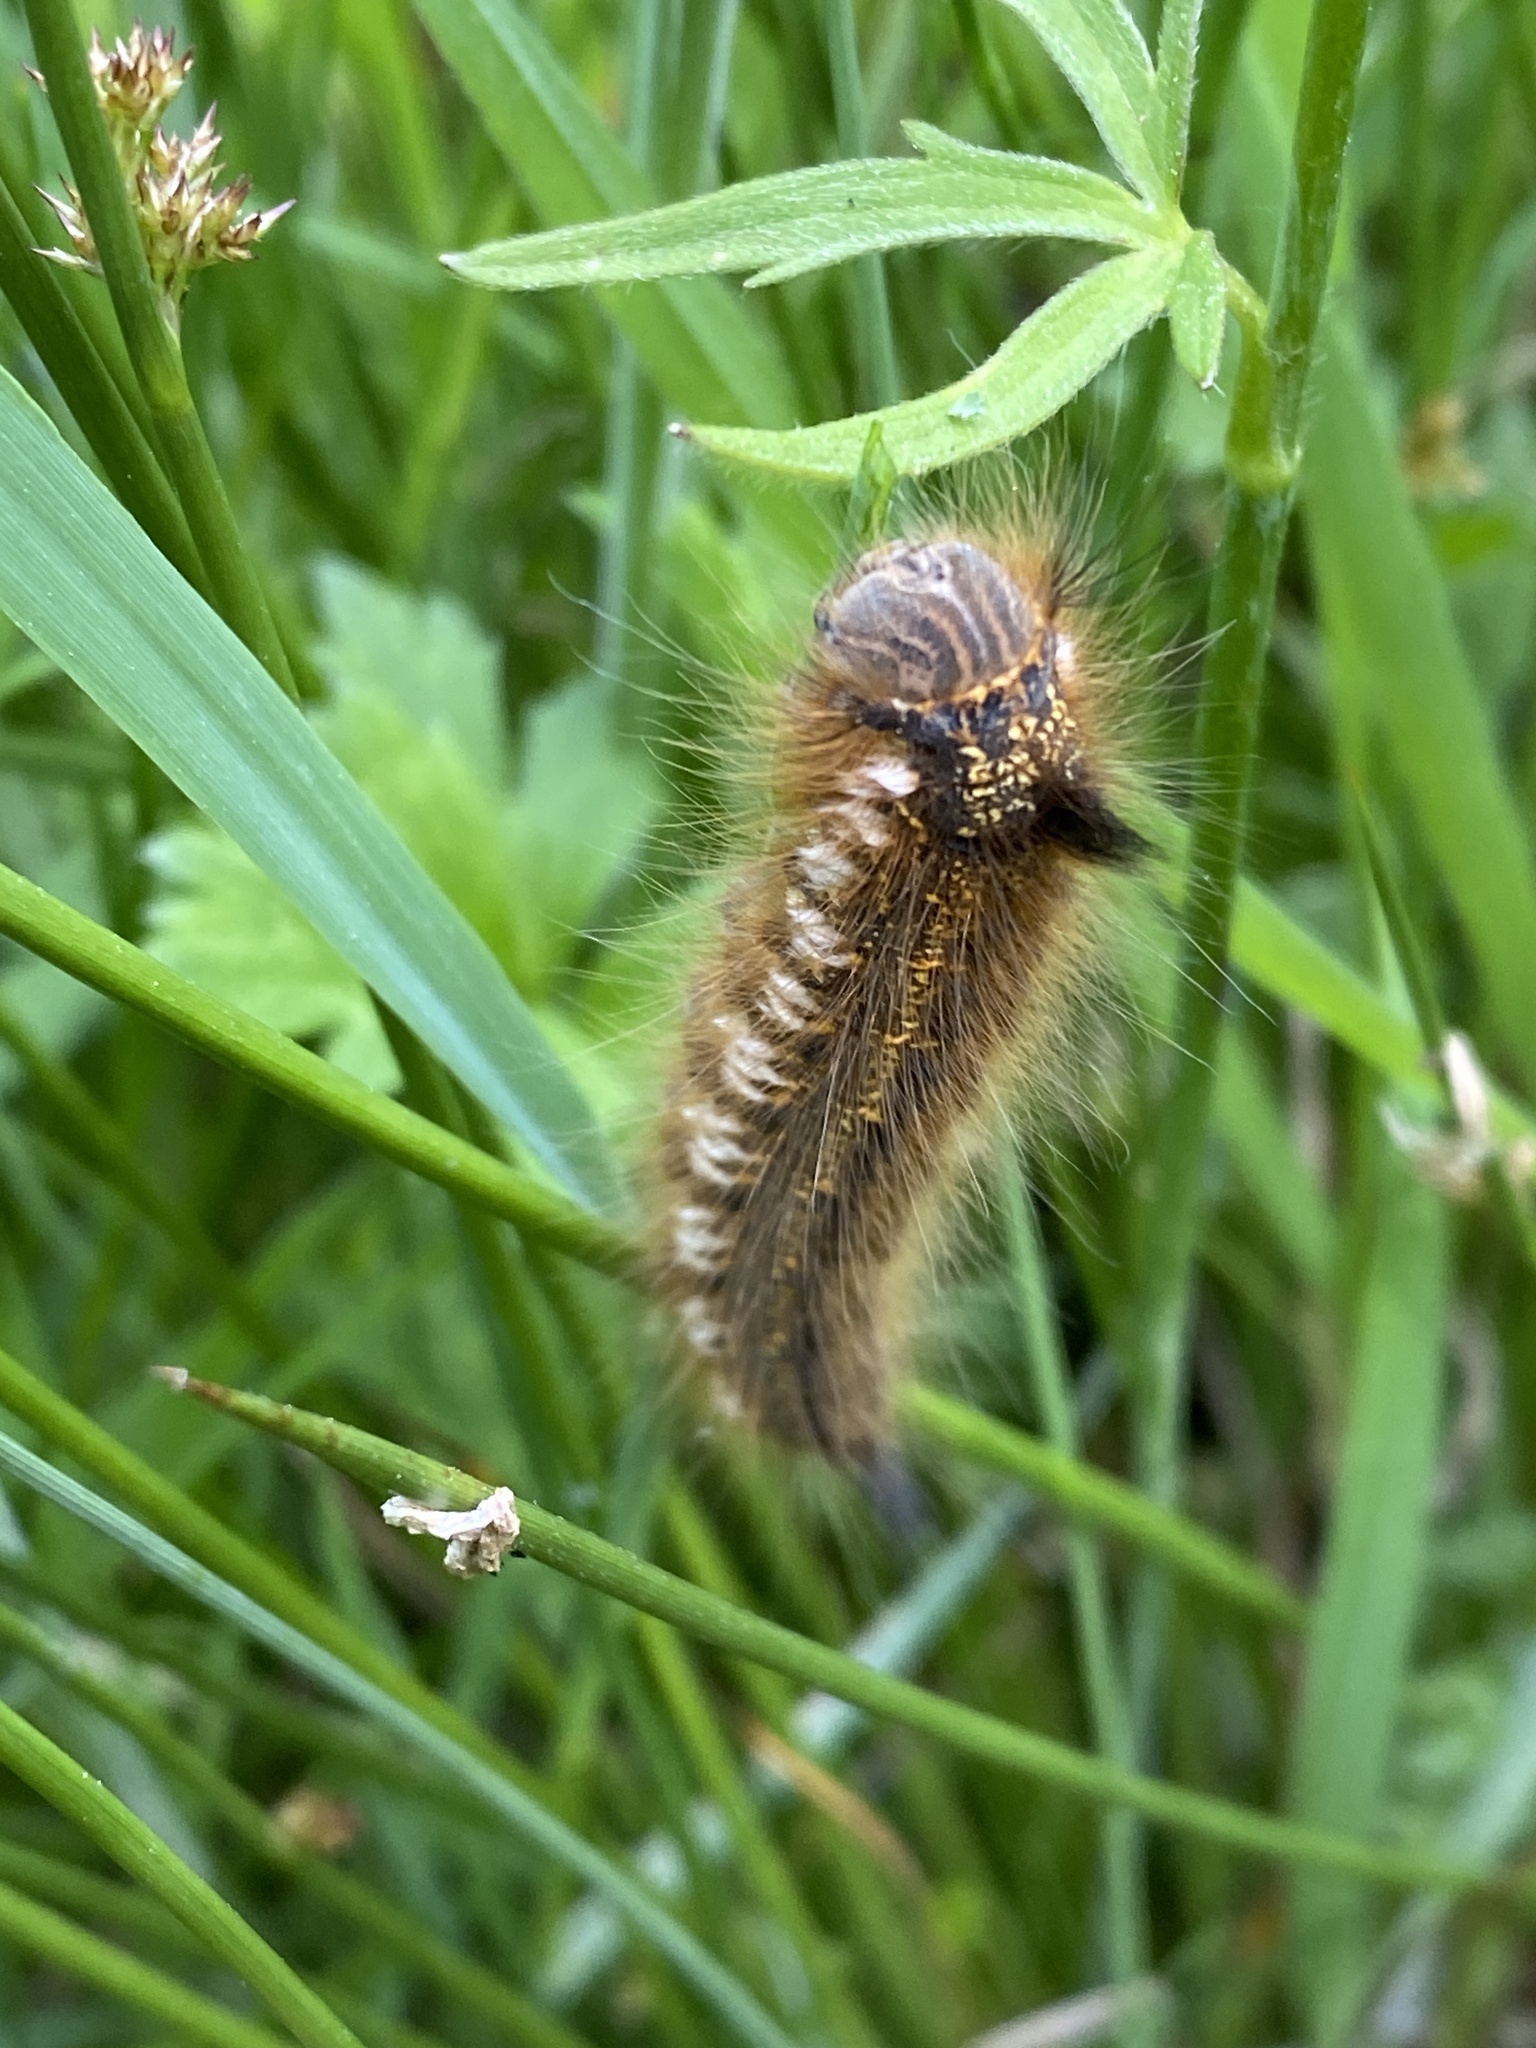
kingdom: Animalia
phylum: Arthropoda
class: Insecta
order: Lepidoptera
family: Lasiocampidae
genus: Euthrix
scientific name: Euthrix potatoria
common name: Drinker
